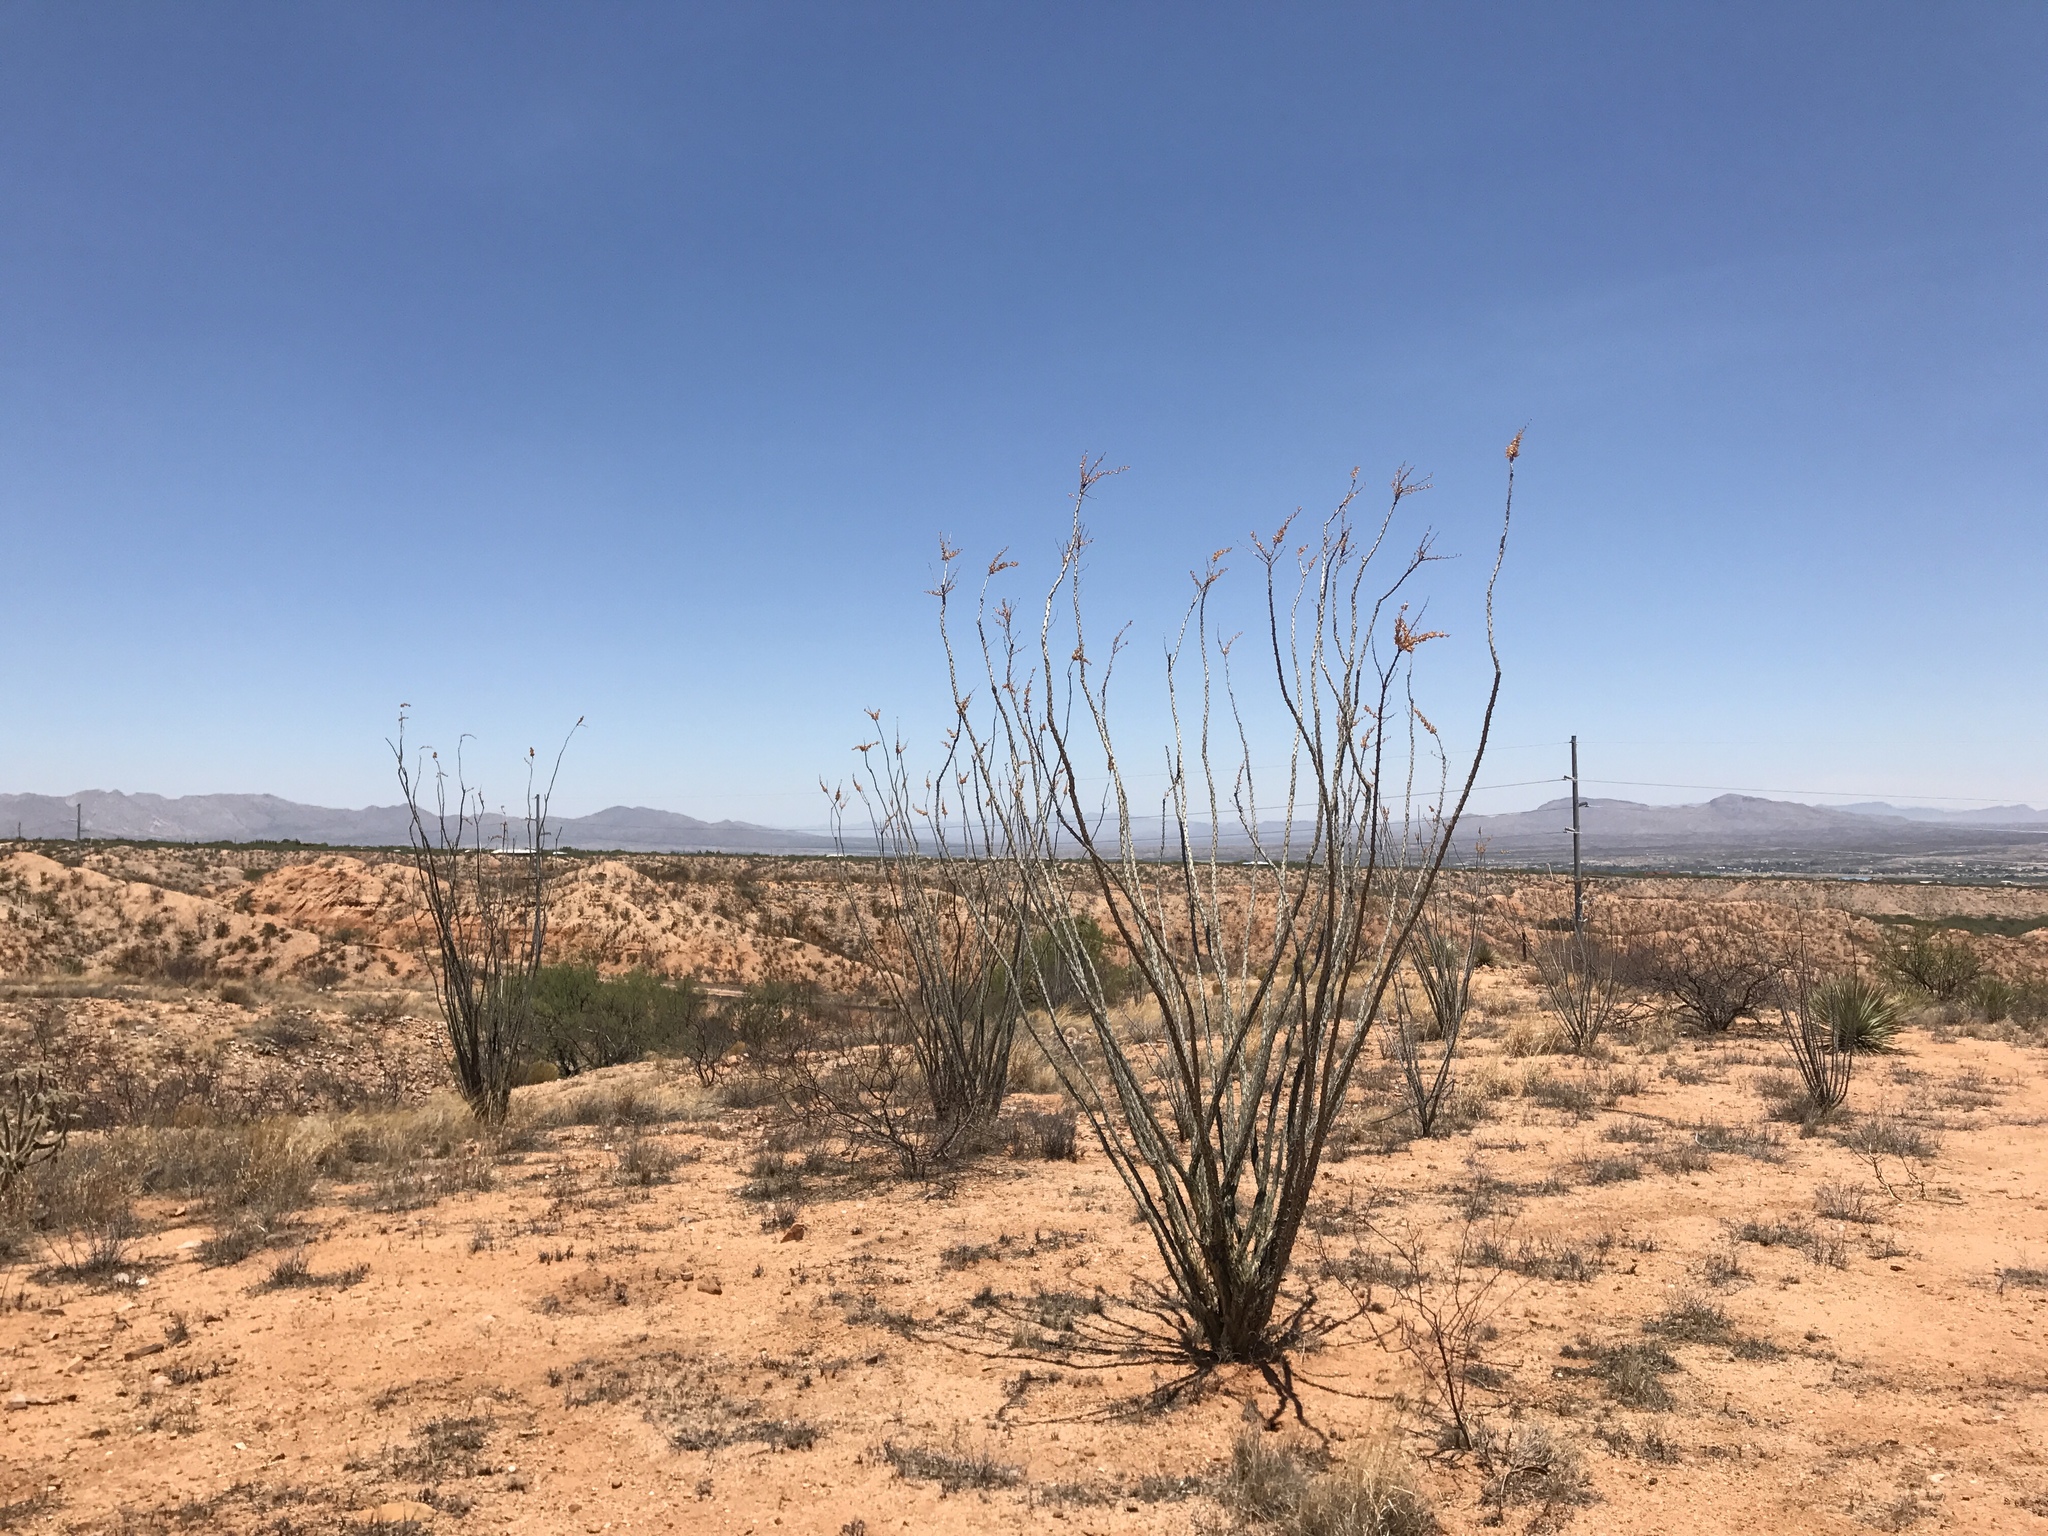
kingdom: Plantae
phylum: Tracheophyta
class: Magnoliopsida
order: Fabales
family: Fabaceae
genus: Vachellia
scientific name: Vachellia constricta
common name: Mescat acacia
